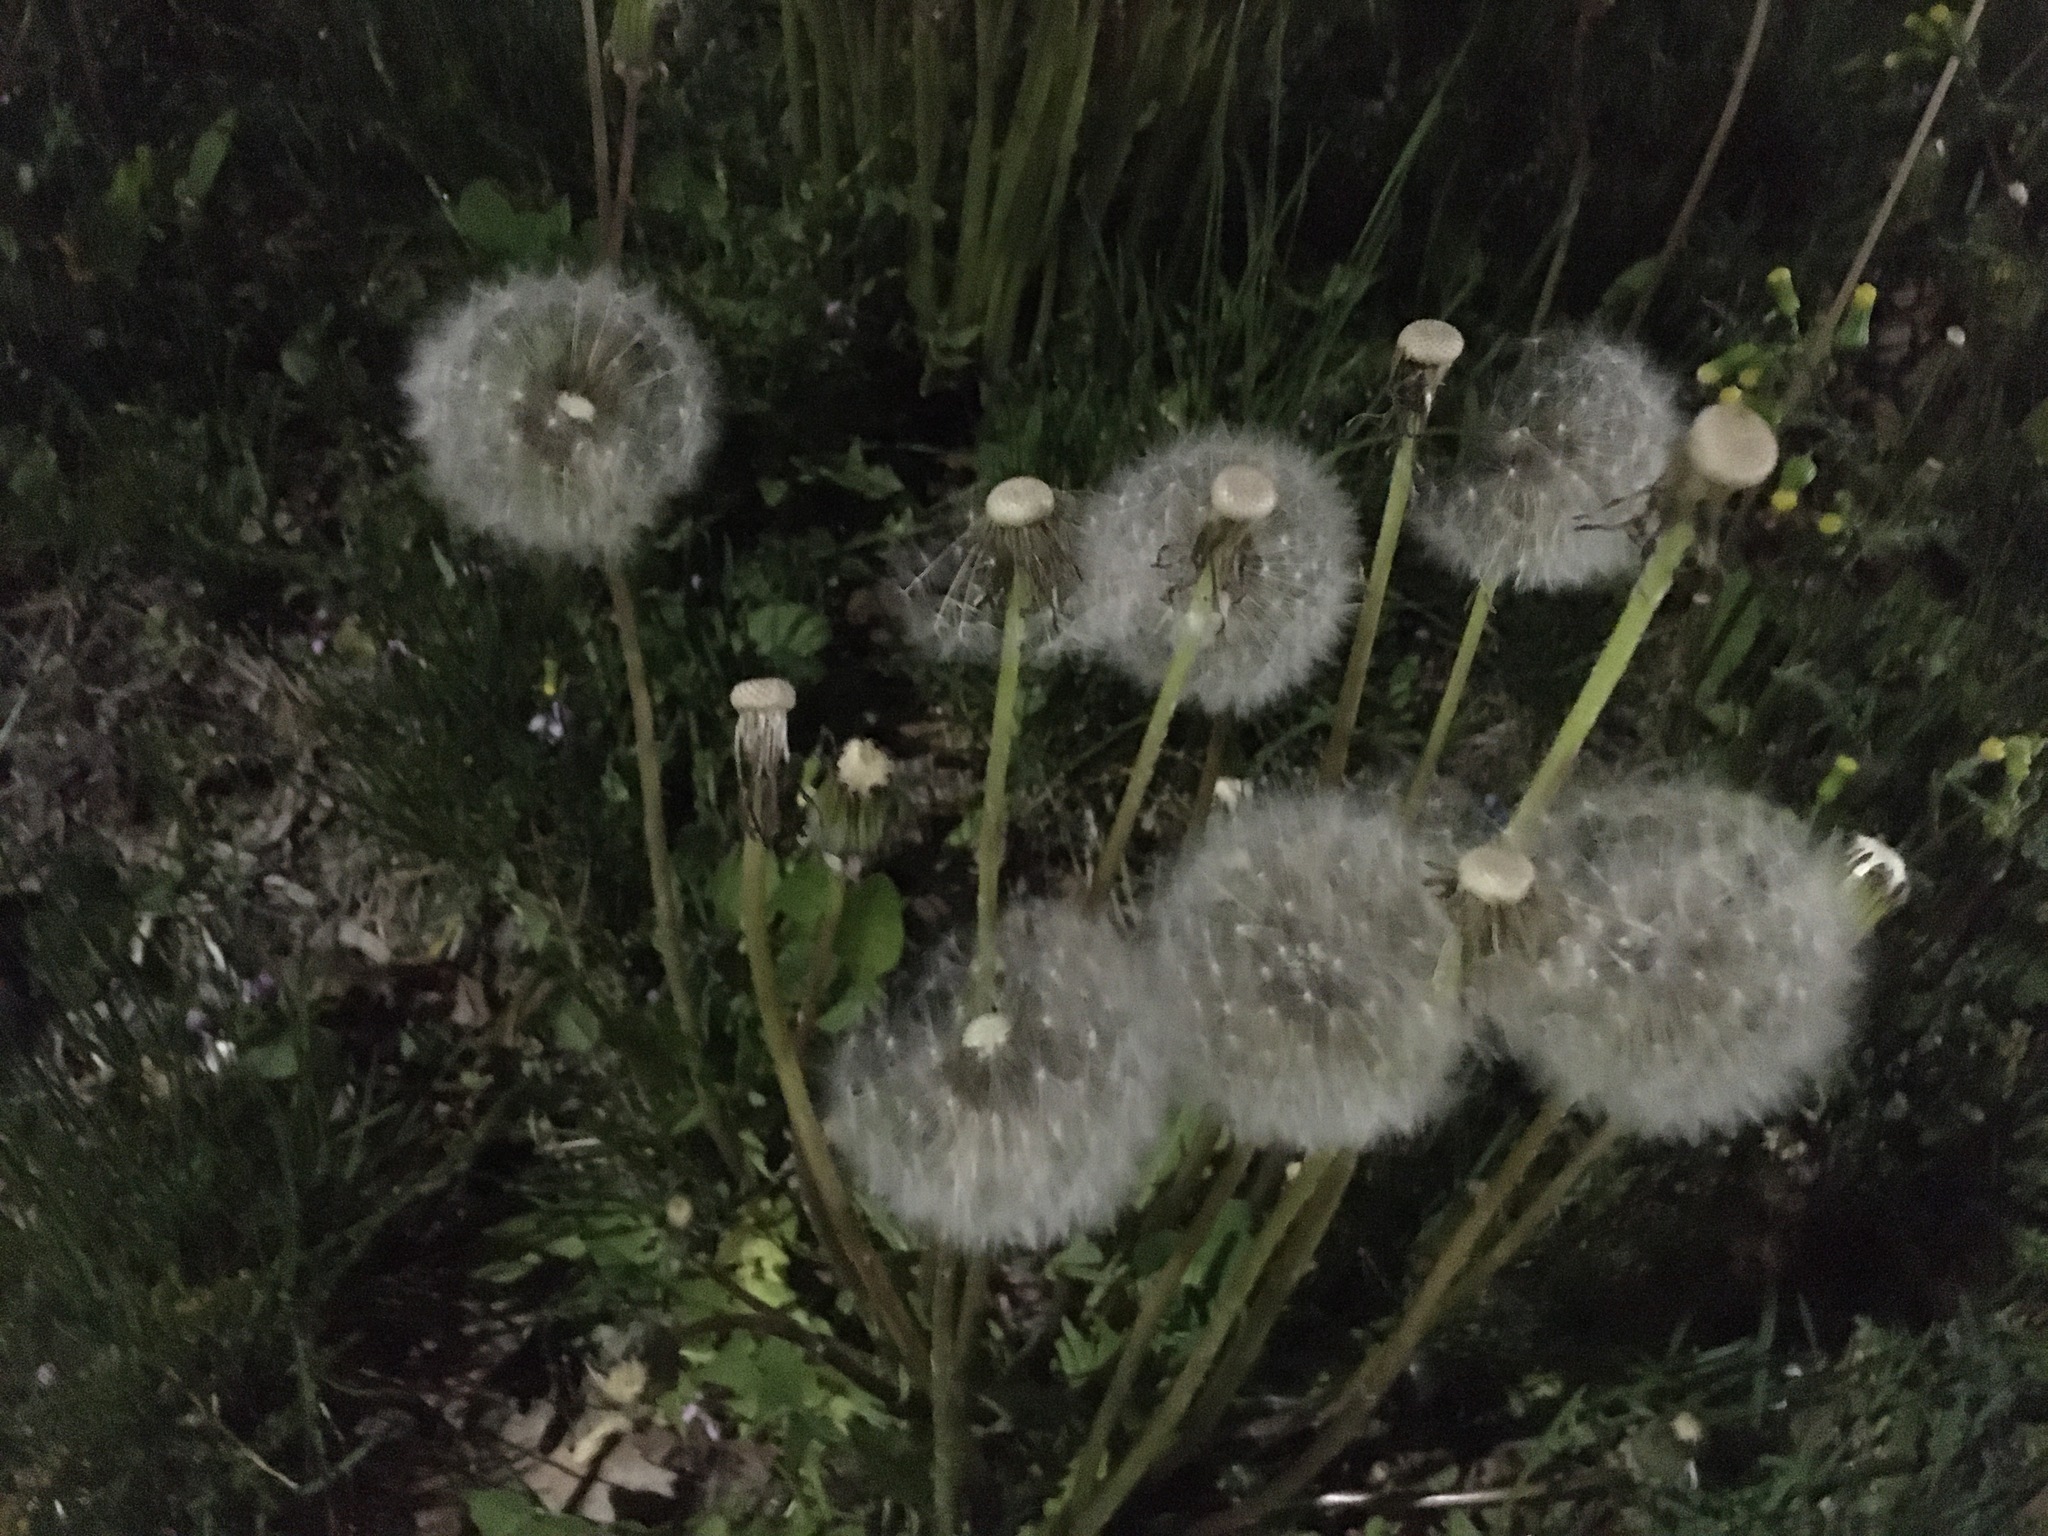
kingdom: Plantae
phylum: Tracheophyta
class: Magnoliopsida
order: Asterales
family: Asteraceae
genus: Taraxacum
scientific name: Taraxacum officinale
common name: Common dandelion
